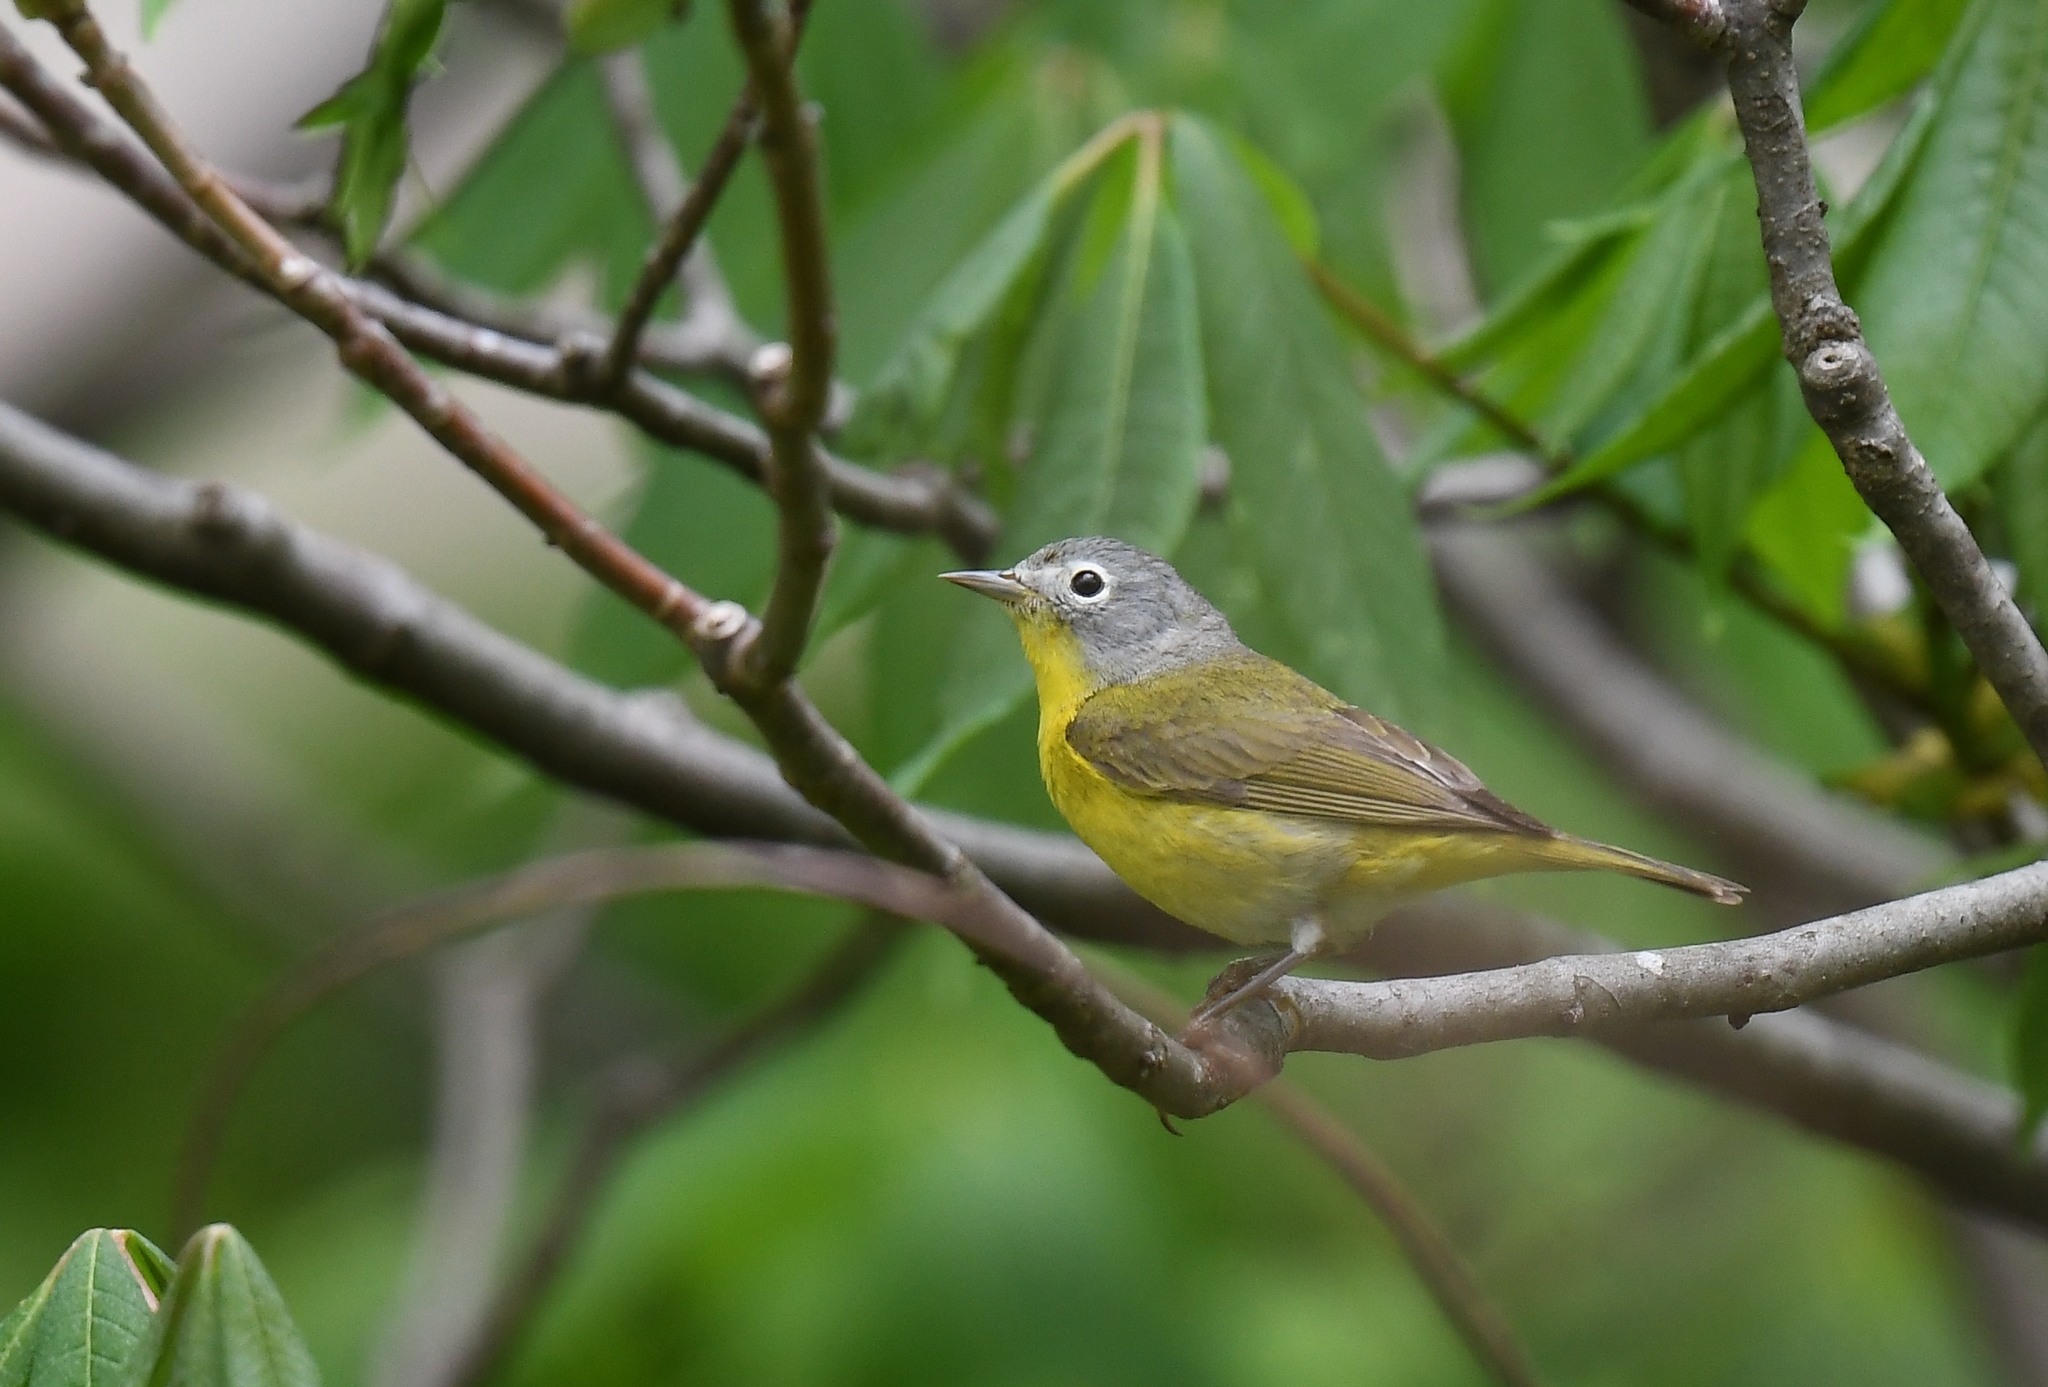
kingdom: Animalia
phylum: Chordata
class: Aves
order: Passeriformes
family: Parulidae
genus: Leiothlypis
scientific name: Leiothlypis ruficapilla
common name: Nashville warbler
